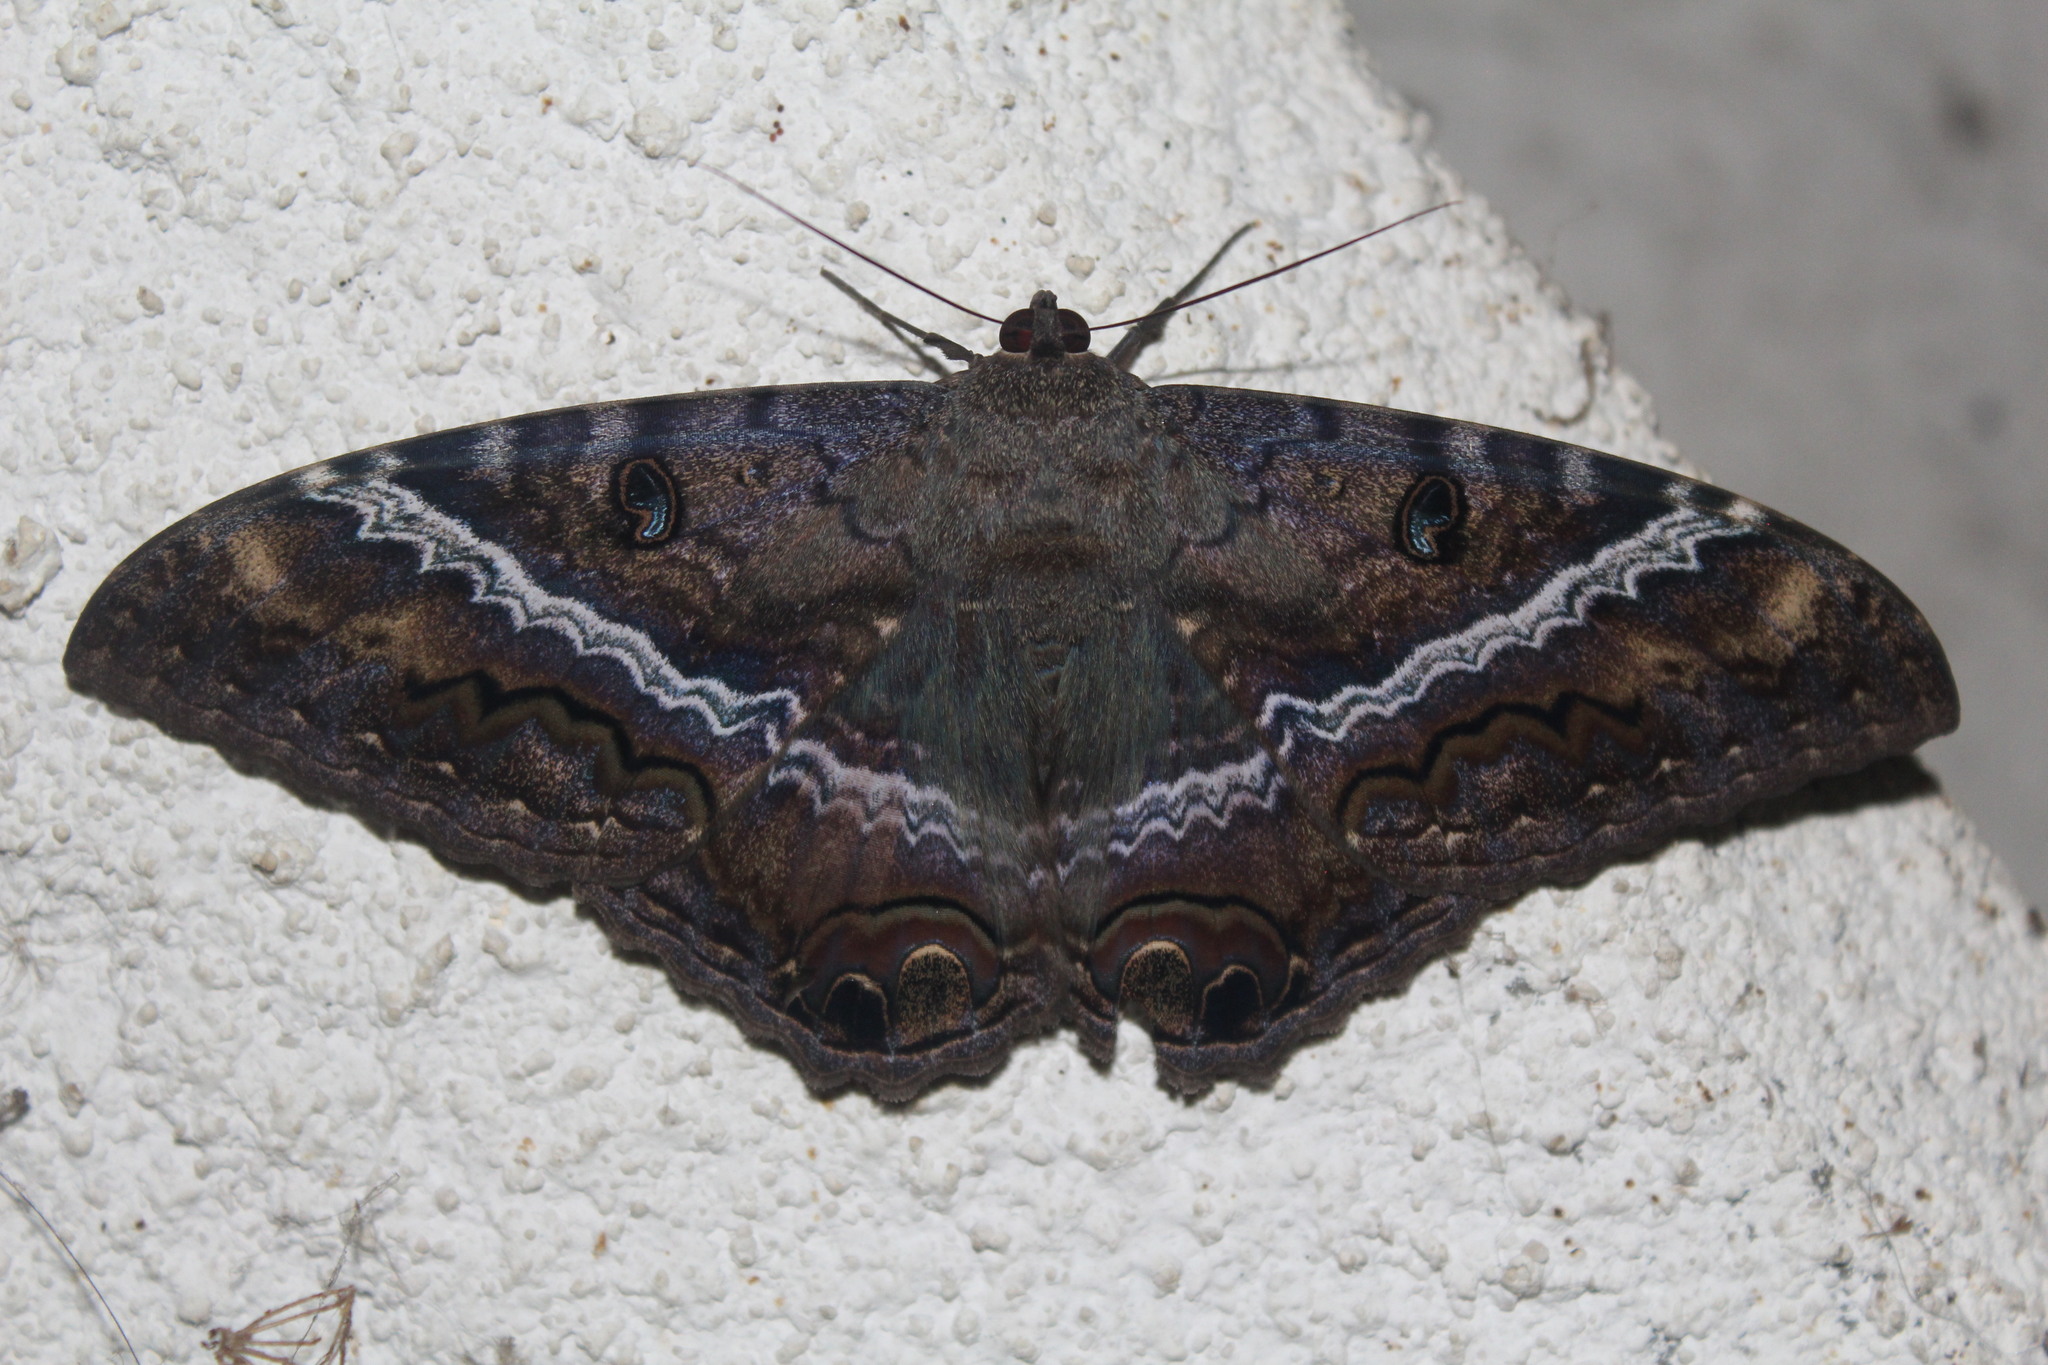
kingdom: Animalia
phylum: Arthropoda
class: Insecta
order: Lepidoptera
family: Erebidae
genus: Ascalapha
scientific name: Ascalapha odorata
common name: Black witch
